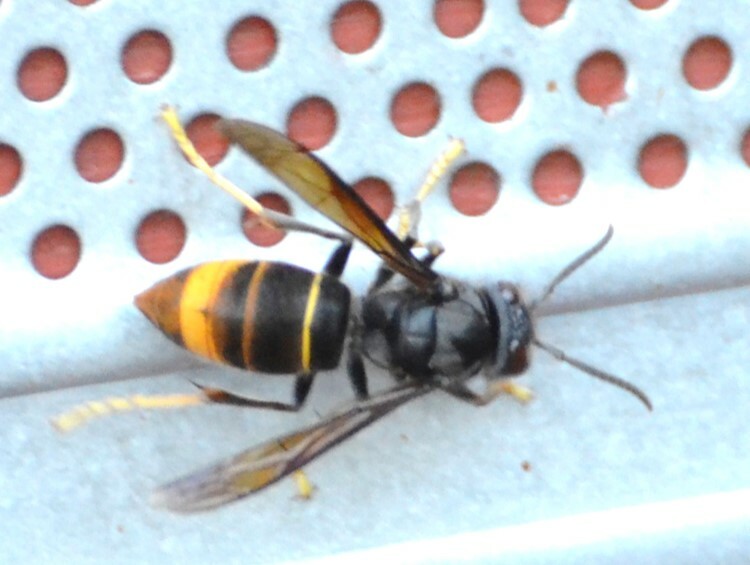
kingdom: Animalia
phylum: Arthropoda
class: Insecta
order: Hymenoptera
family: Vespidae
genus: Vespa
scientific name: Vespa velutina
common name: Asian hornet
